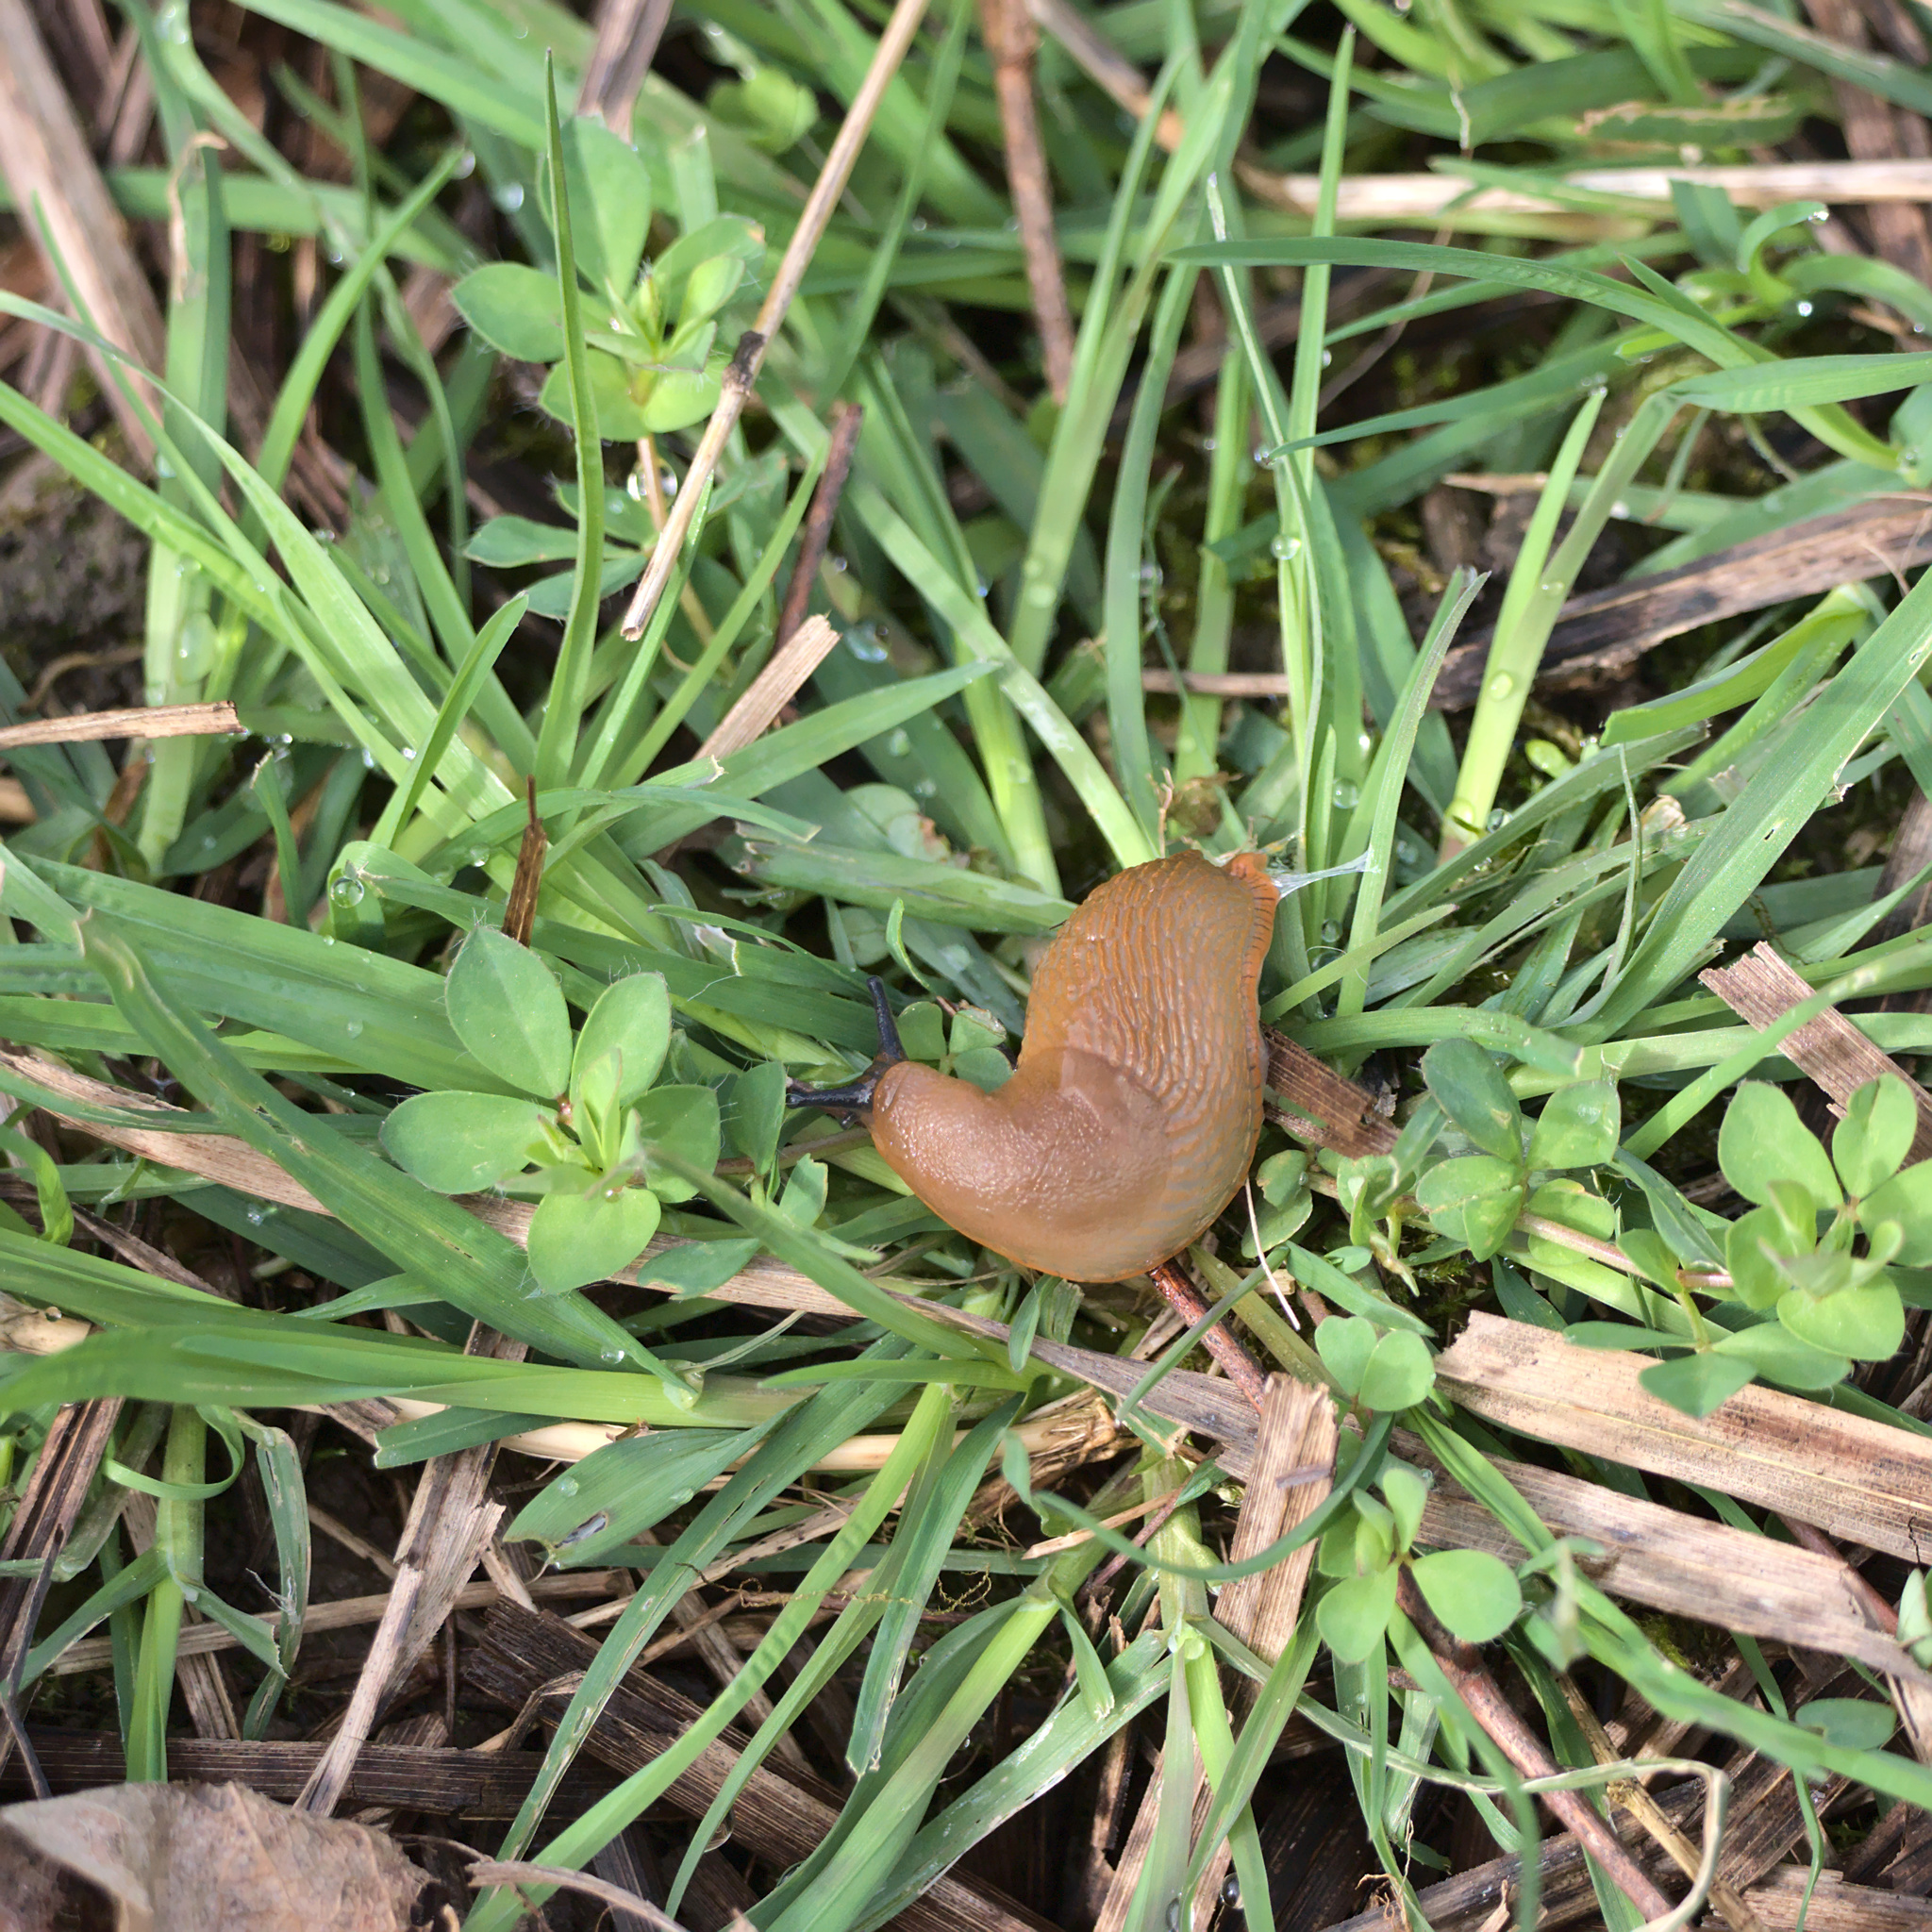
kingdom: Animalia
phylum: Mollusca
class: Gastropoda
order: Stylommatophora
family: Arionidae
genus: Arion
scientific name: Arion
